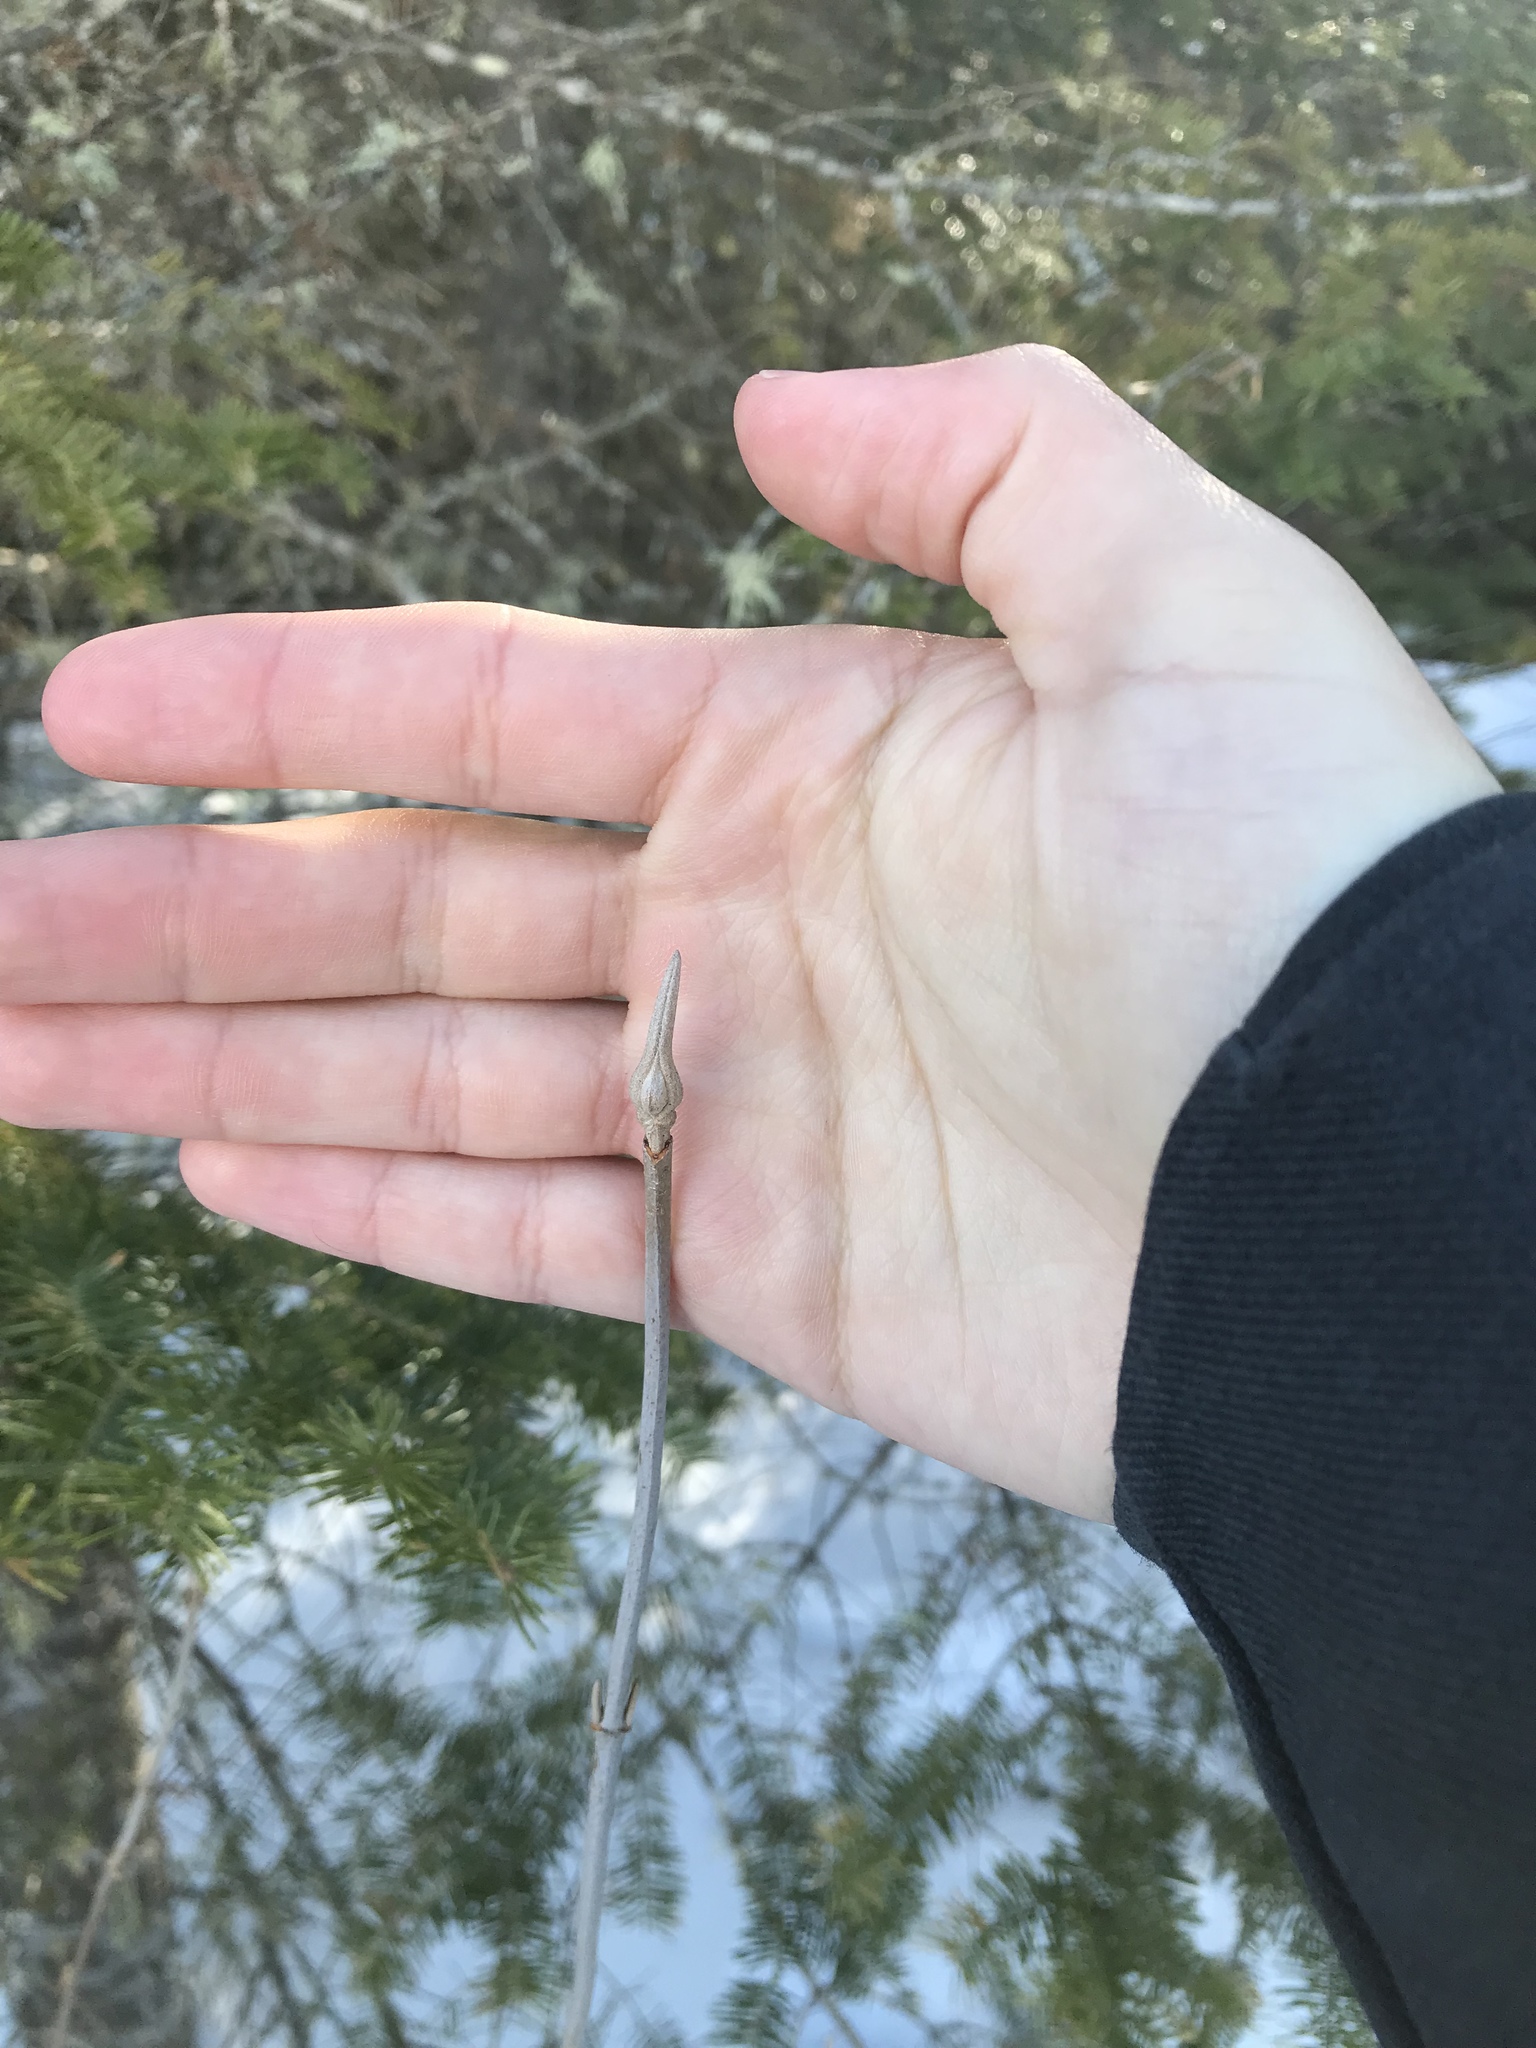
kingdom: Plantae
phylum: Tracheophyta
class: Magnoliopsida
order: Dipsacales
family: Viburnaceae
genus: Viburnum
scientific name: Viburnum cassinoides
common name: Swamp haw
